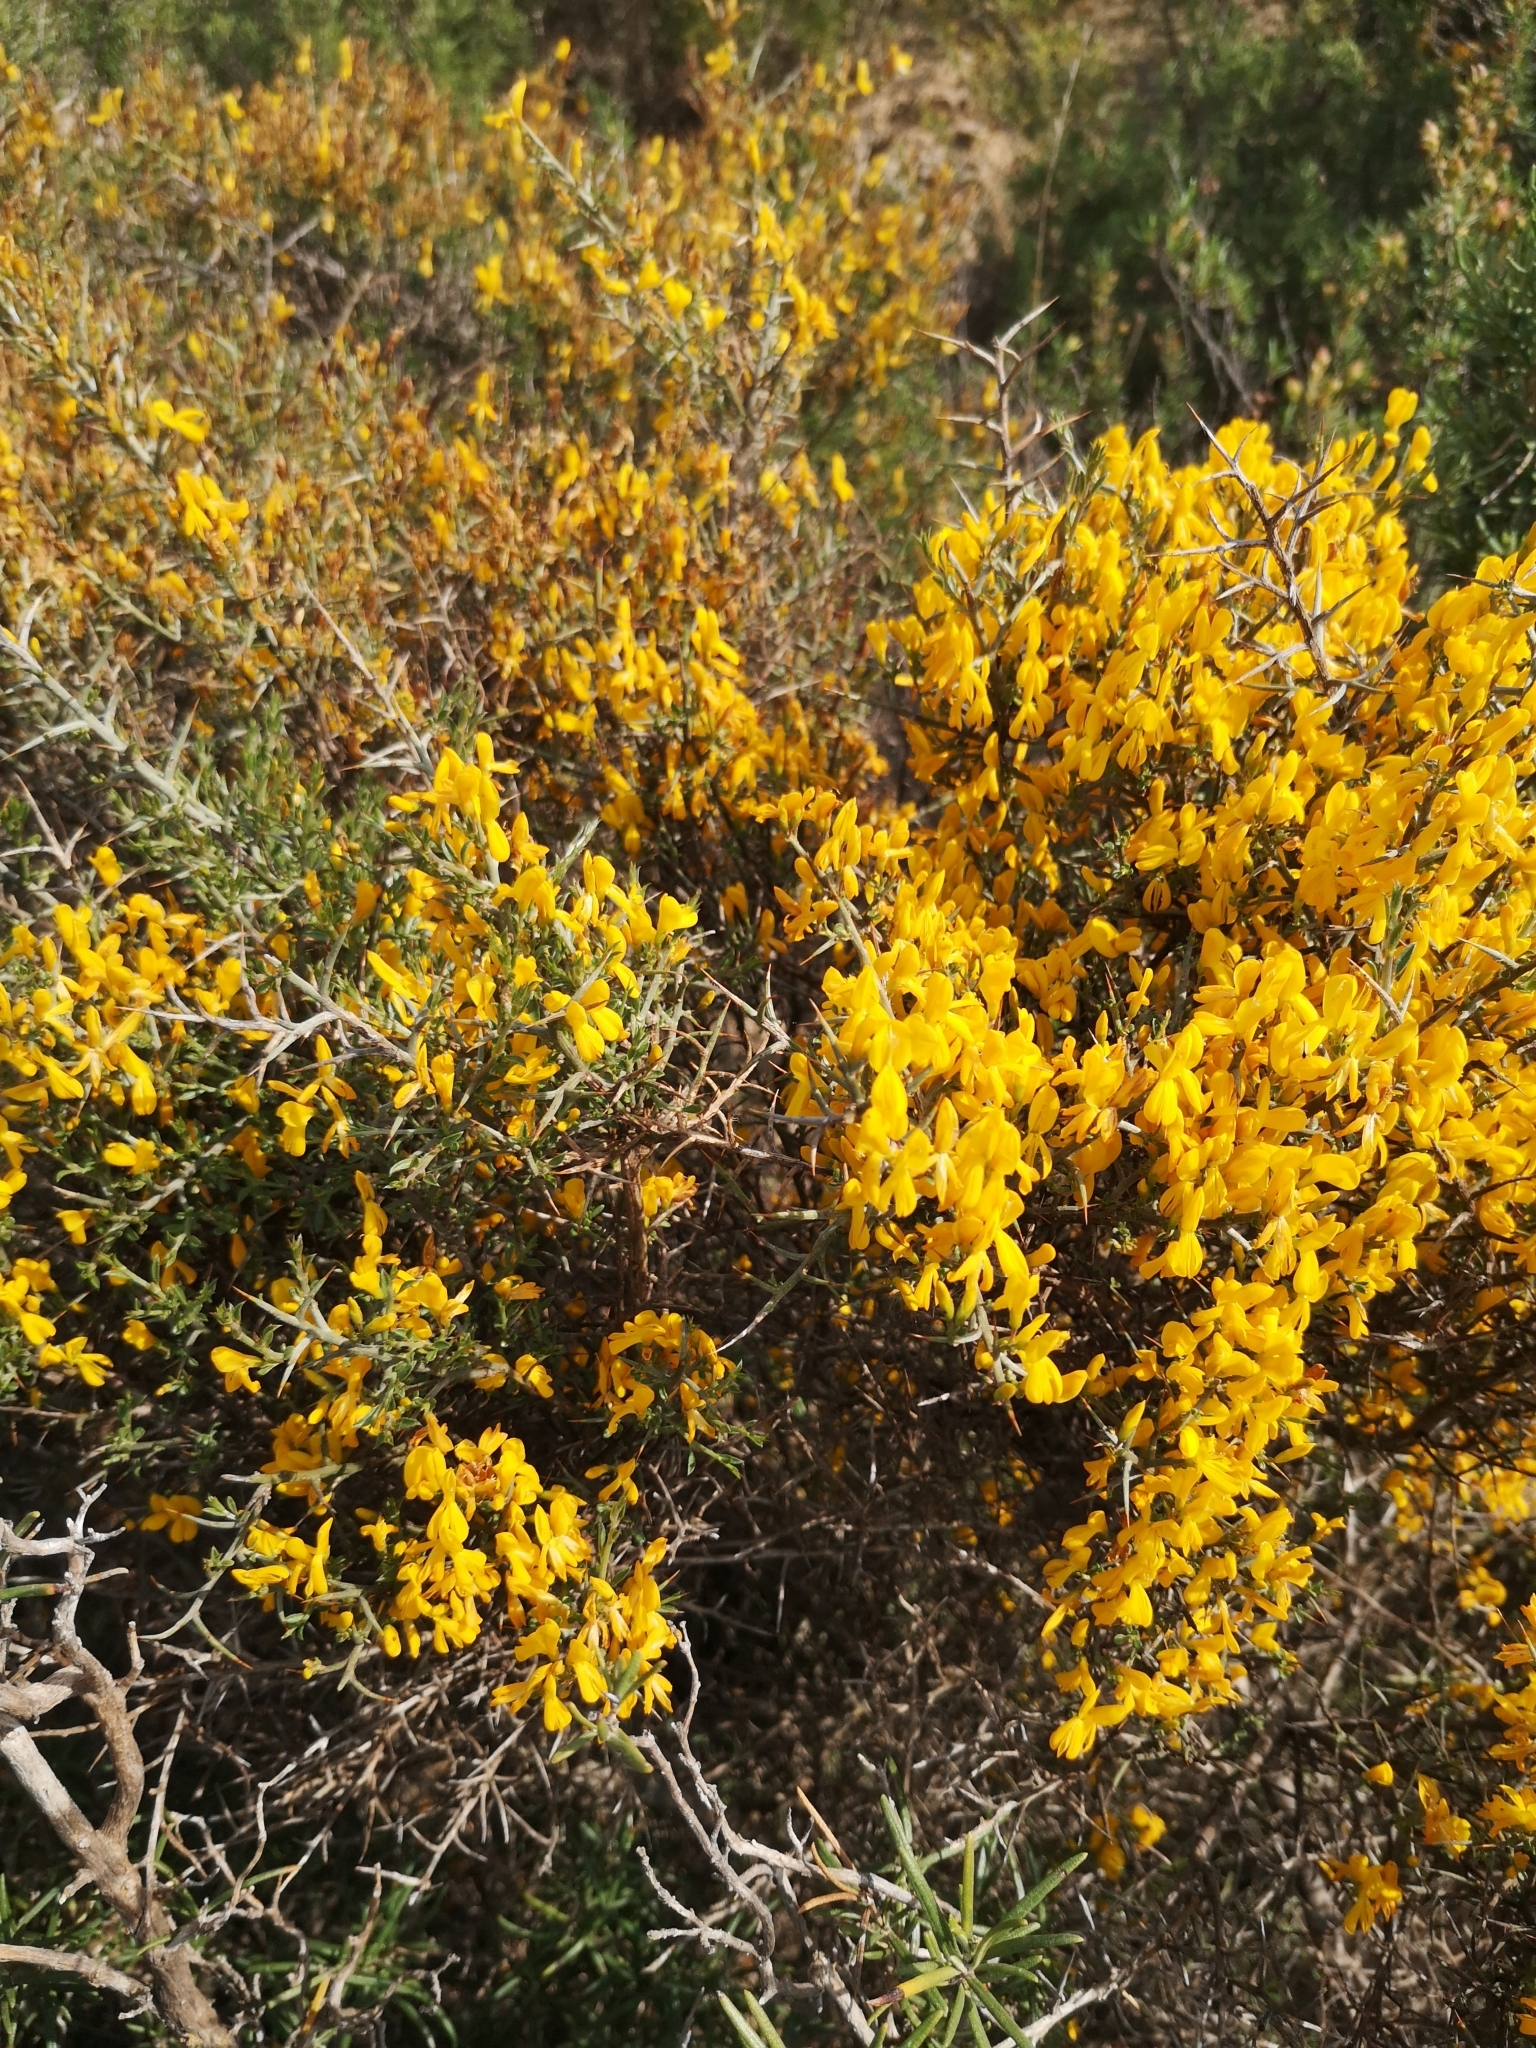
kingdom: Plantae
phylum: Tracheophyta
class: Magnoliopsida
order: Fabales
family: Fabaceae
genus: Genista
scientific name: Genista scorpius
